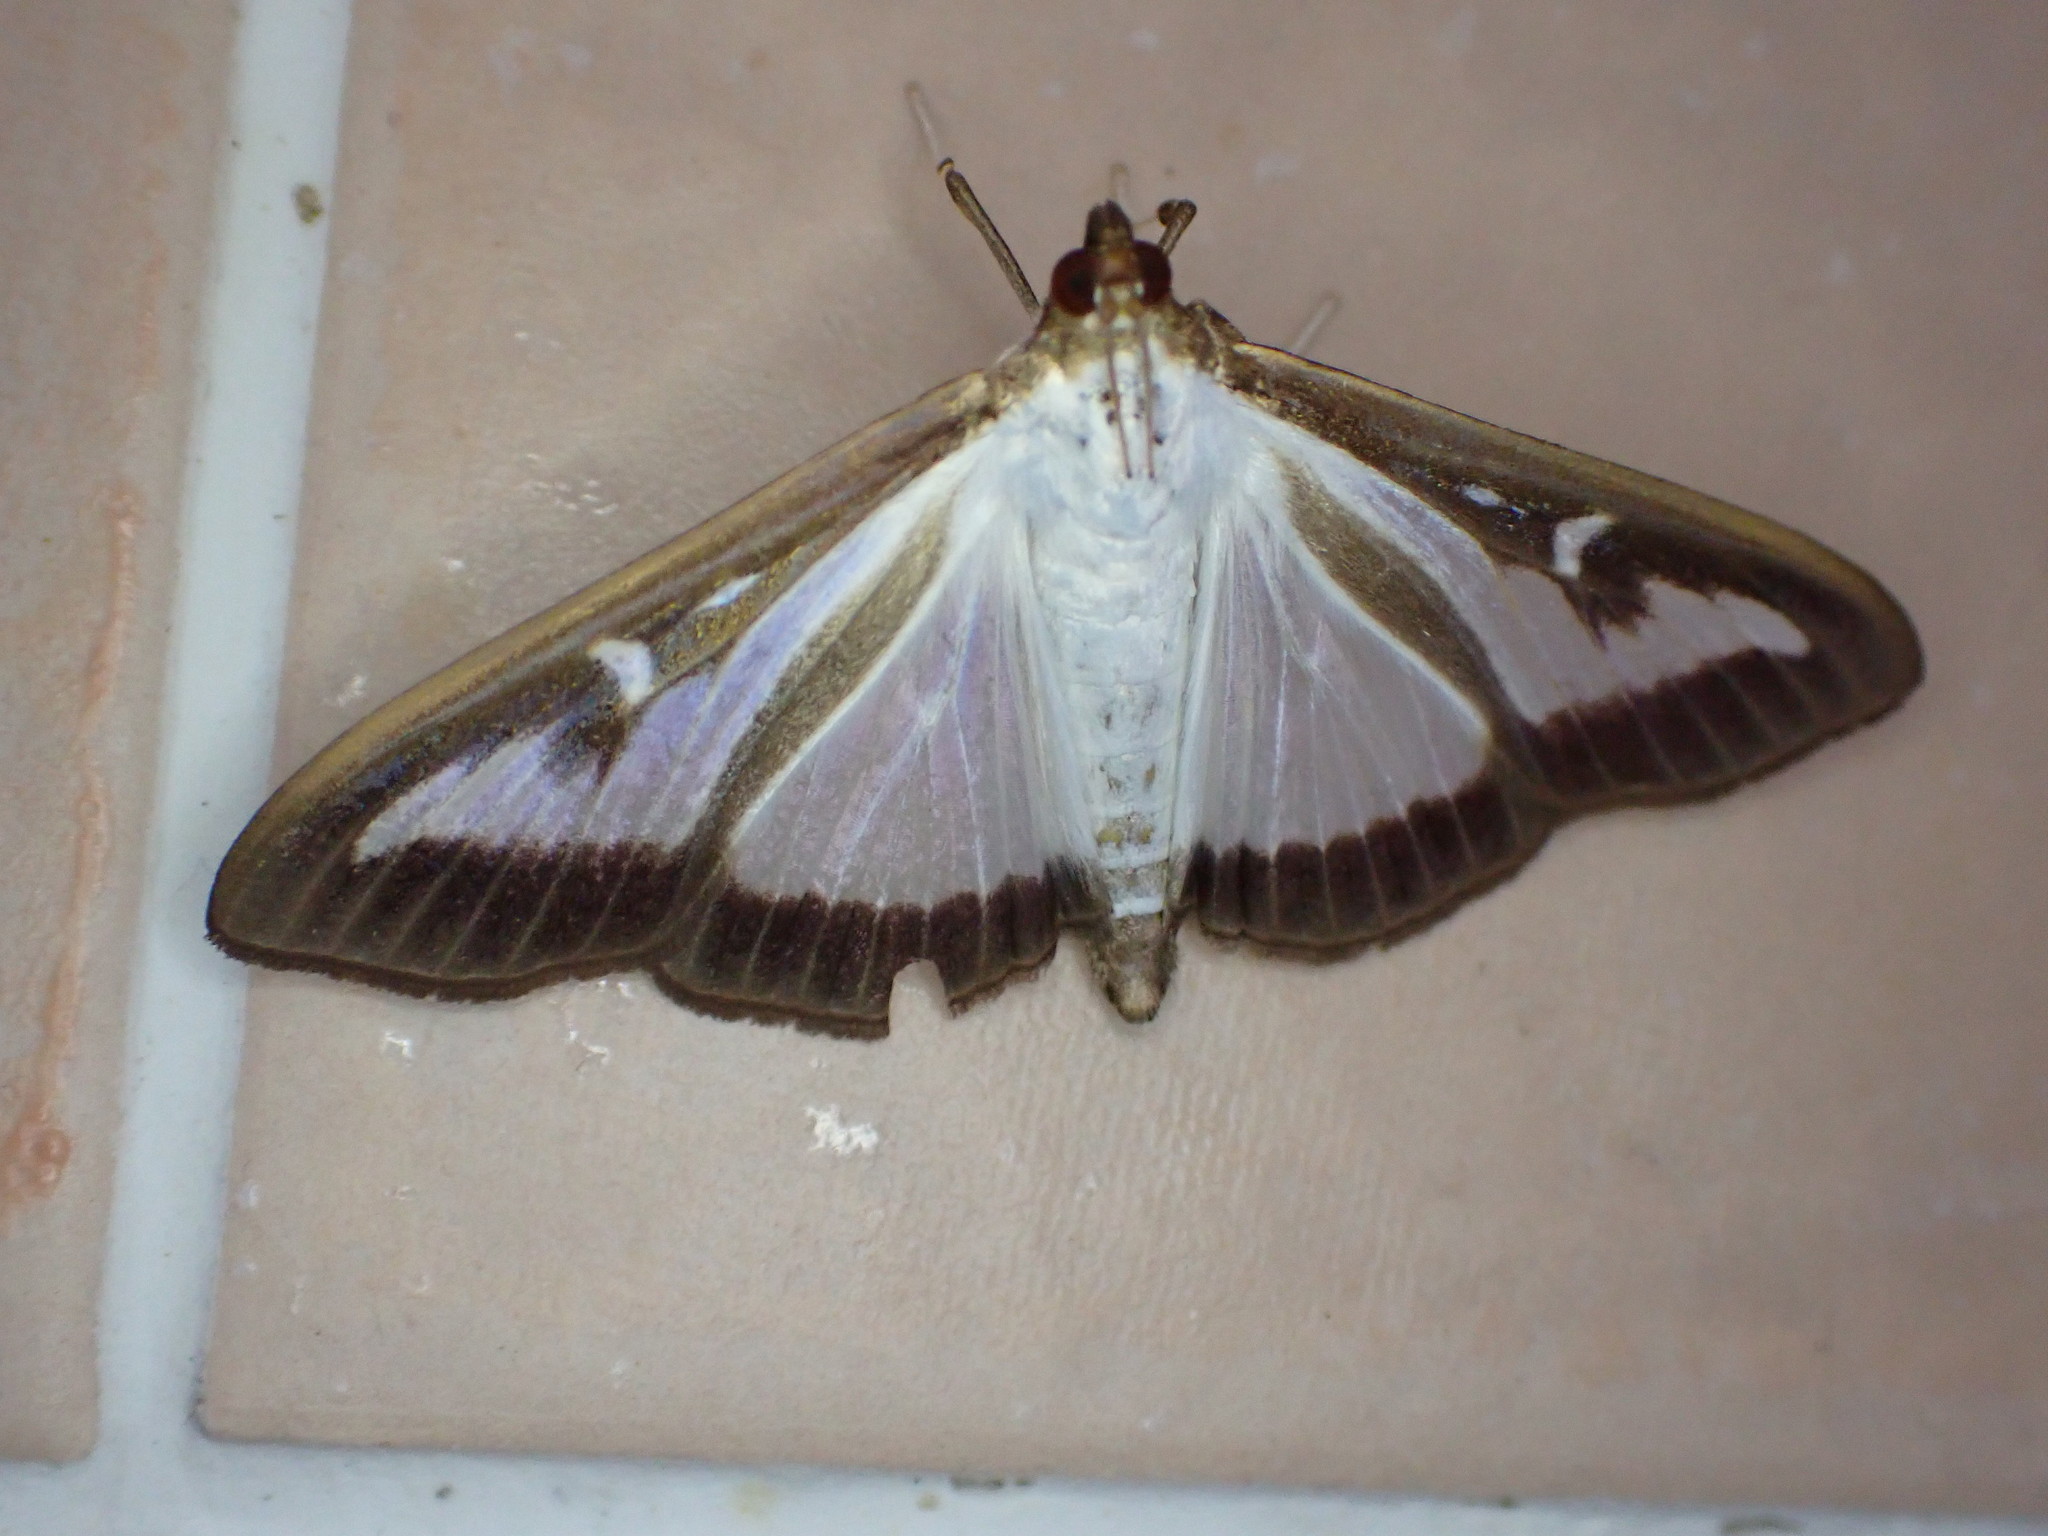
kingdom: Animalia
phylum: Arthropoda
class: Insecta
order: Lepidoptera
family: Crambidae
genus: Cydalima
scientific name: Cydalima perspectalis
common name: Box tree moth
